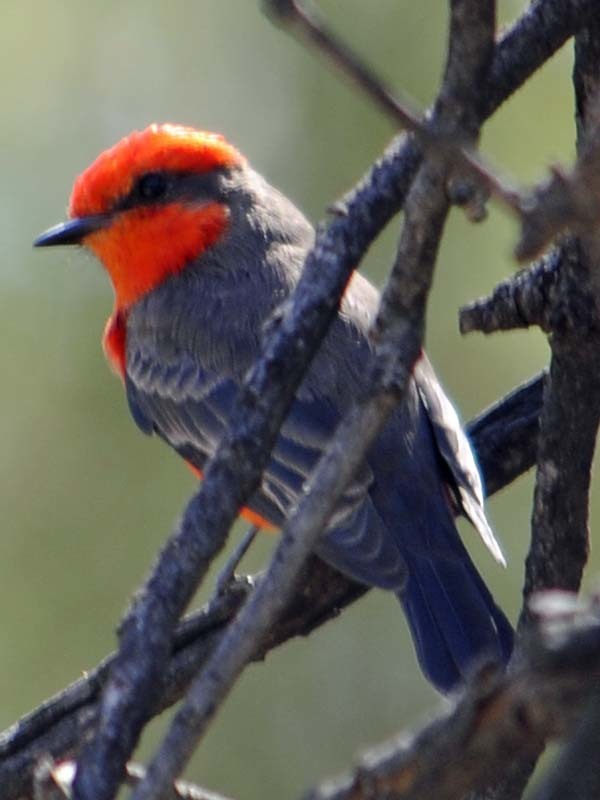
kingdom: Animalia
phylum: Chordata
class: Aves
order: Passeriformes
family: Tyrannidae
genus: Pyrocephalus
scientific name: Pyrocephalus rubinus
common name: Vermilion flycatcher
